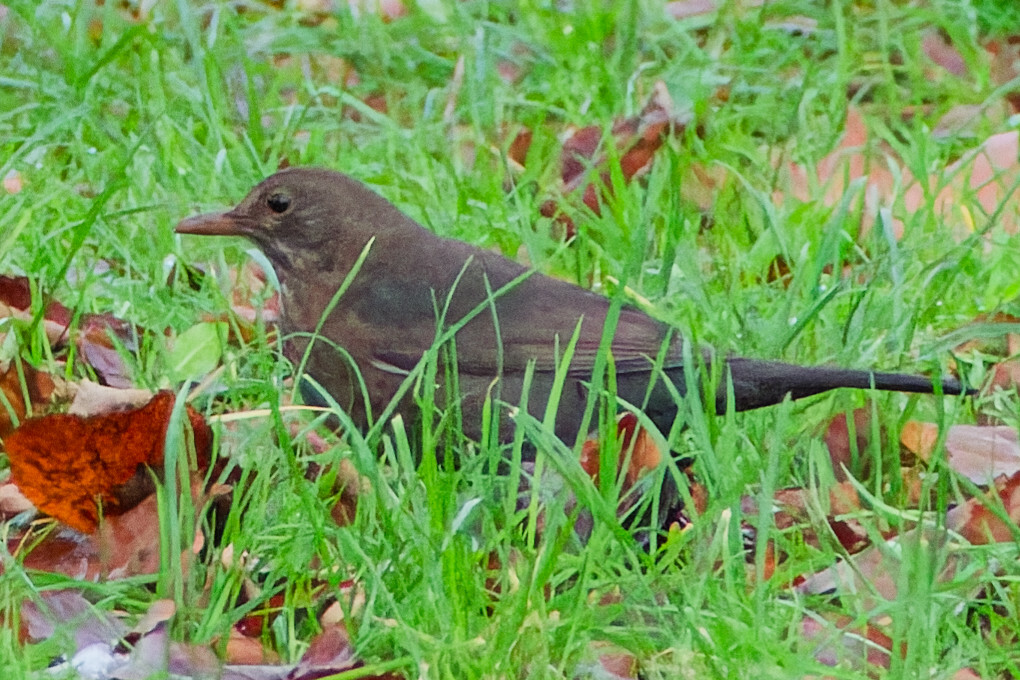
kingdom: Animalia
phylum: Chordata
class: Aves
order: Passeriformes
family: Turdidae
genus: Turdus
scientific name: Turdus merula
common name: Common blackbird
